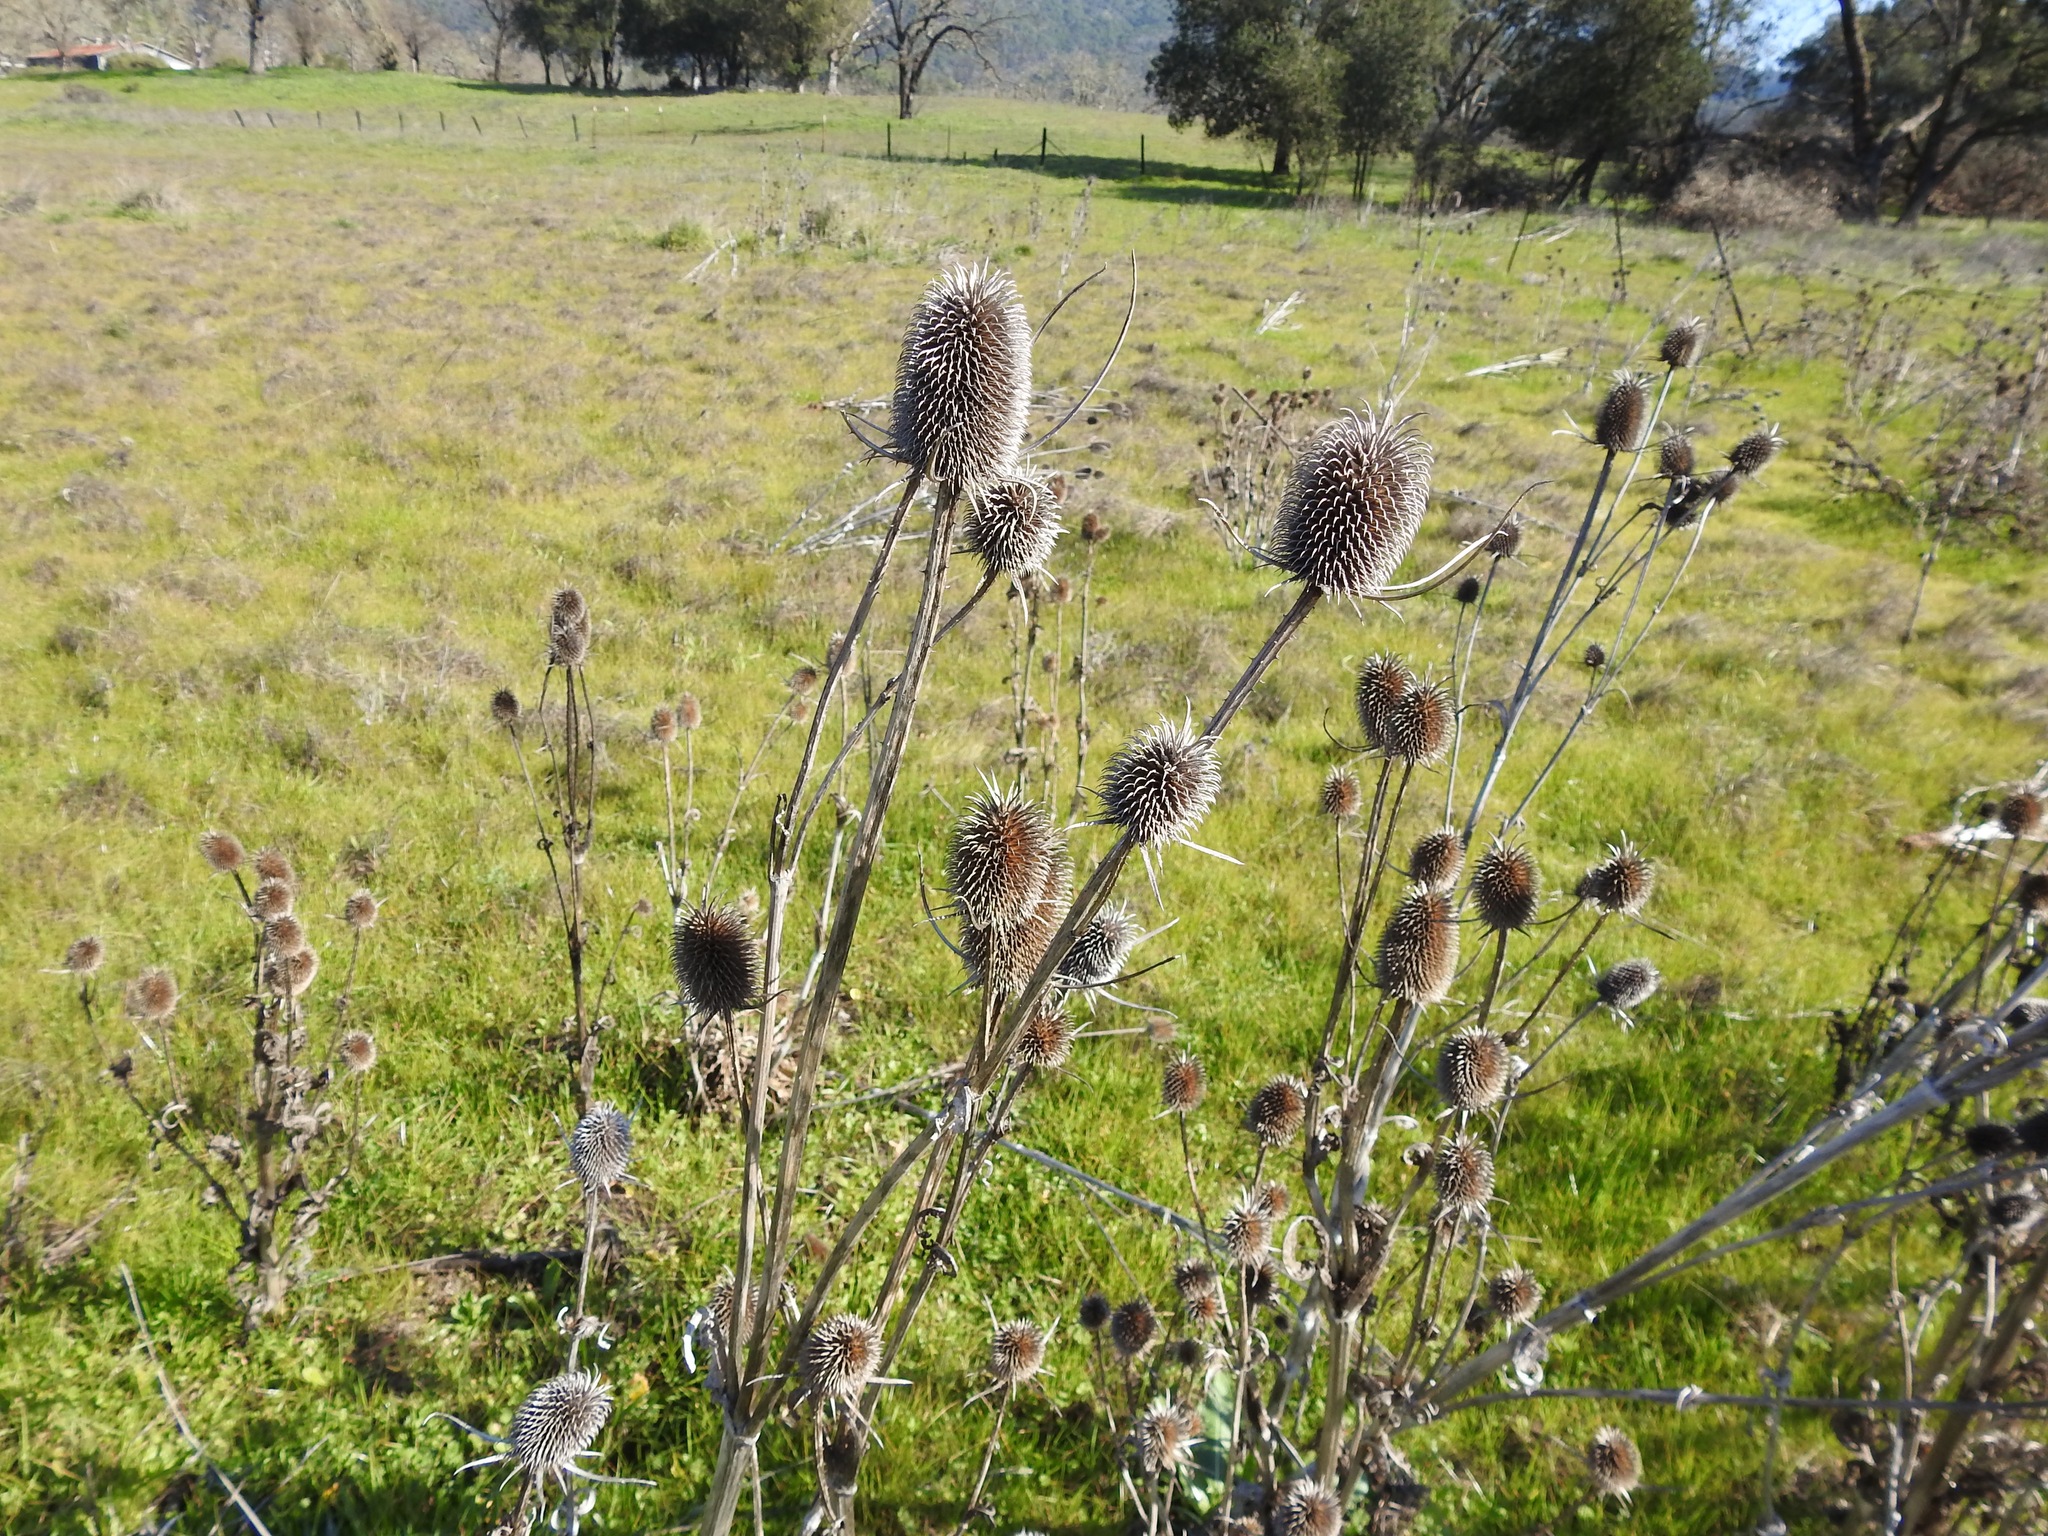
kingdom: Plantae
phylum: Tracheophyta
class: Magnoliopsida
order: Dipsacales
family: Caprifoliaceae
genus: Dipsacus
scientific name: Dipsacus sativus
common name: Fuller's teasel
